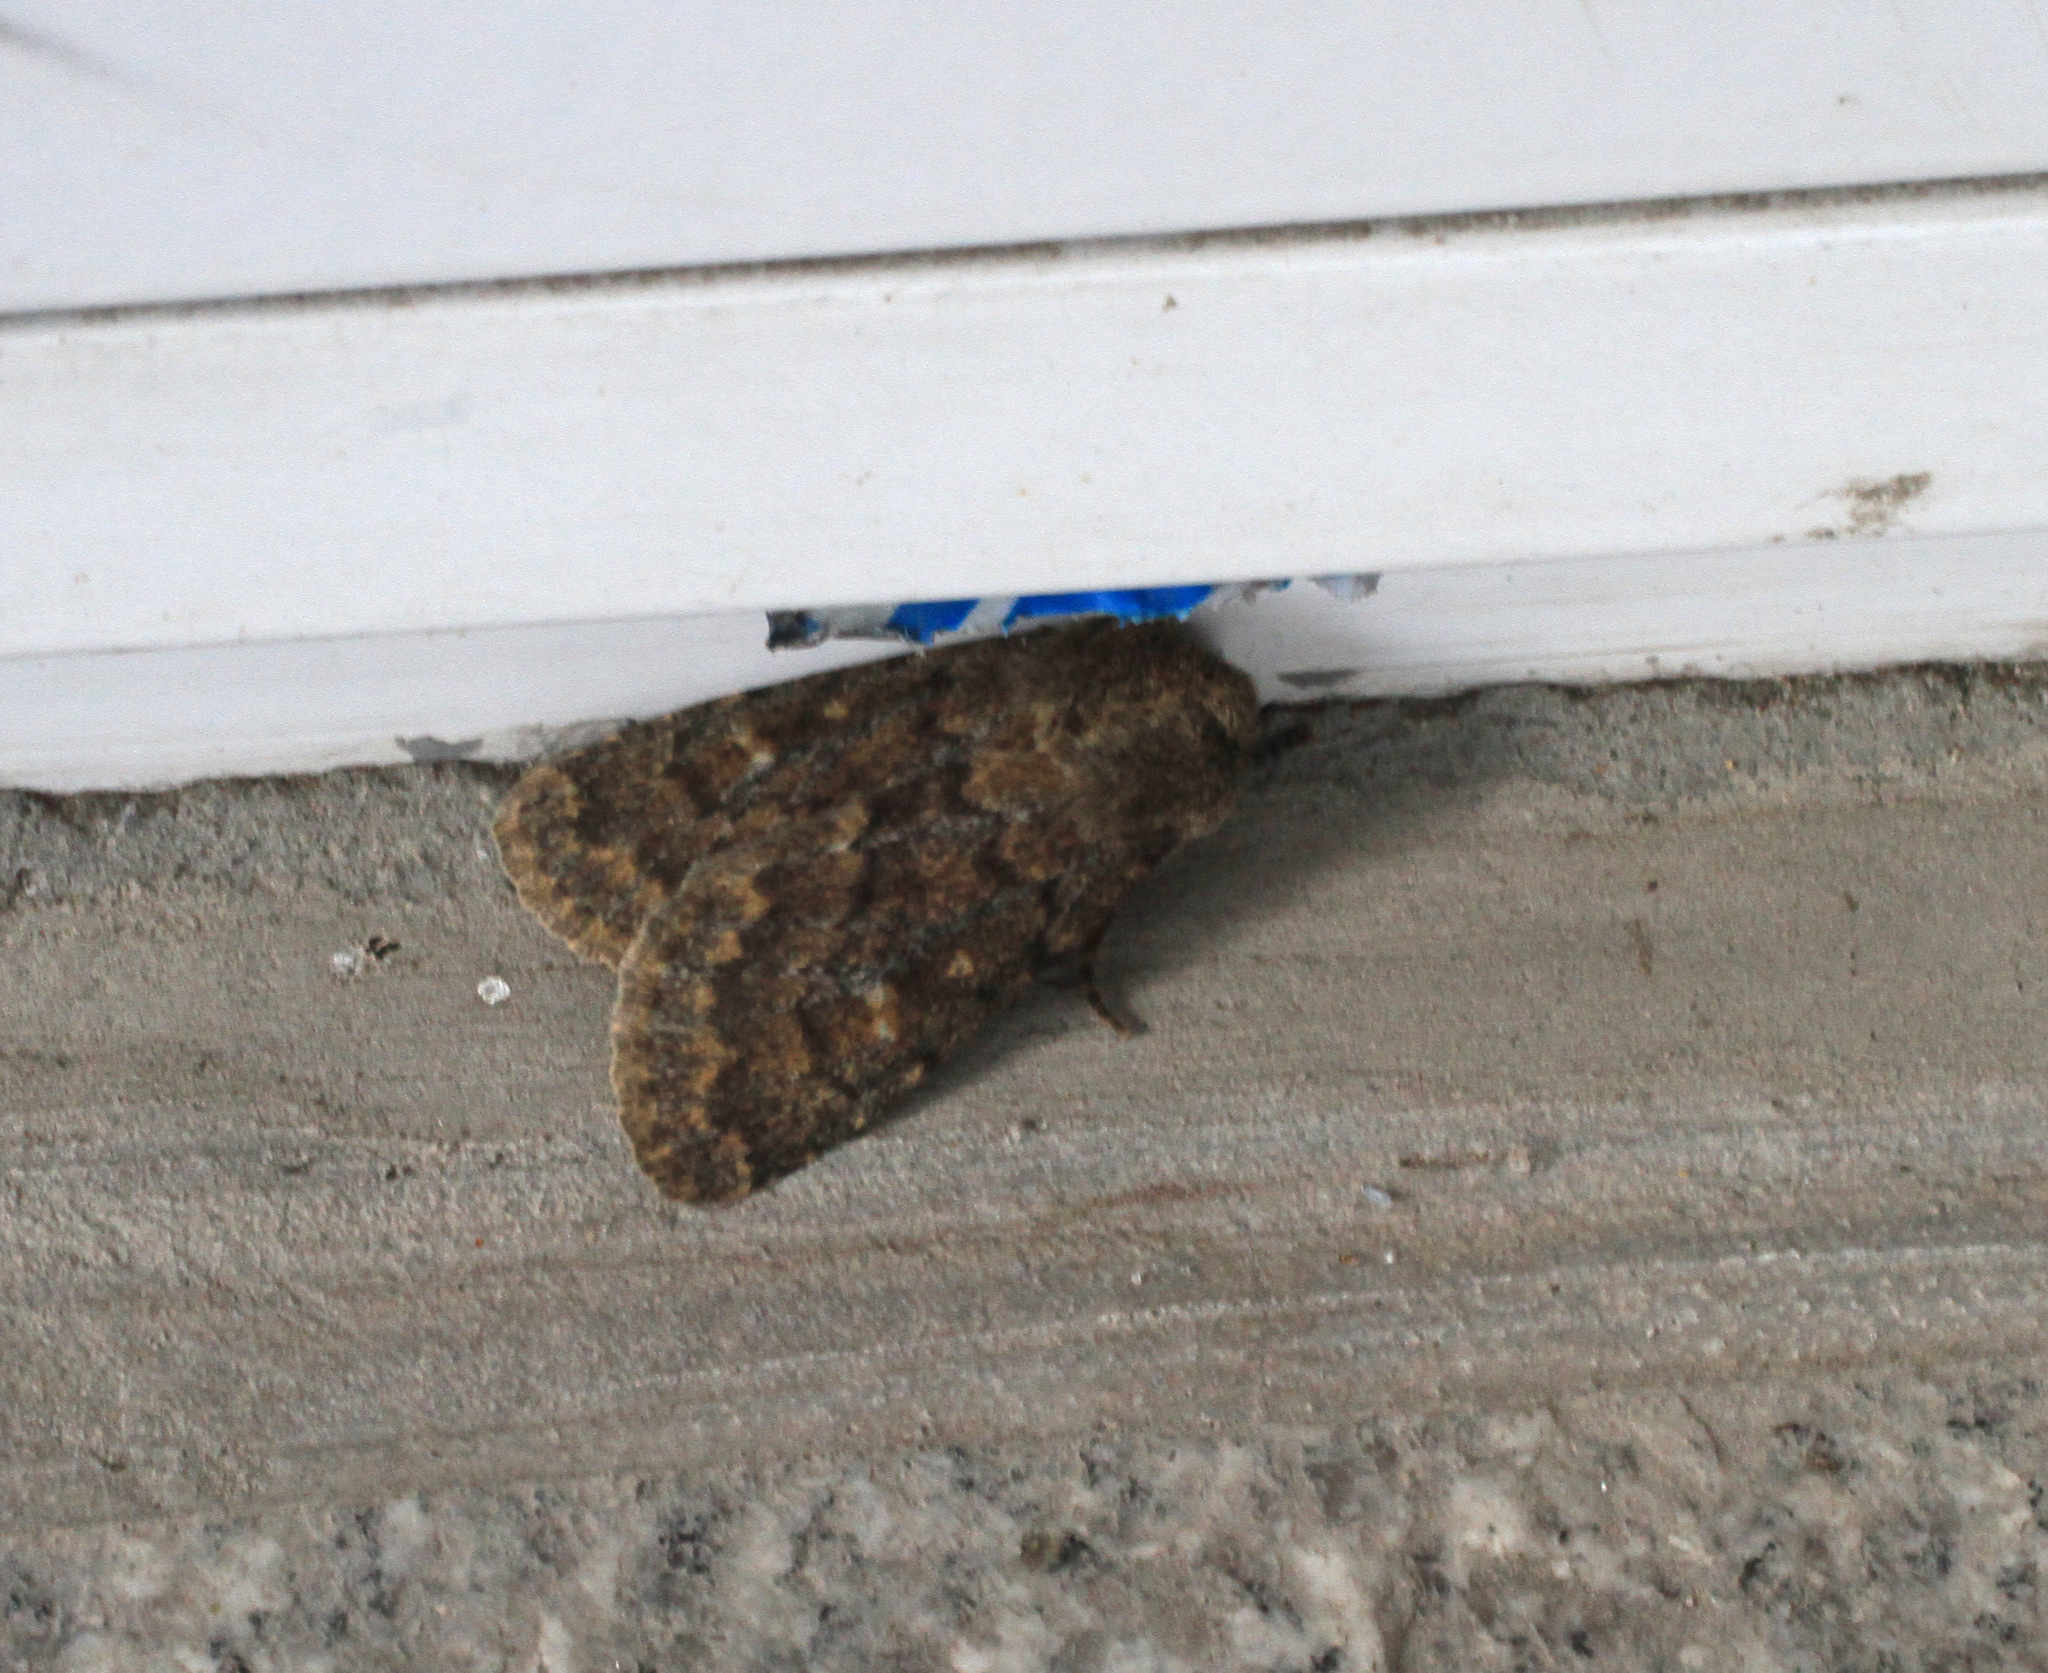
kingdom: Animalia
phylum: Arthropoda
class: Insecta
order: Lepidoptera
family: Noctuidae
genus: Dasypolia
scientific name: Dasypolia templi
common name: Brindled ochre
